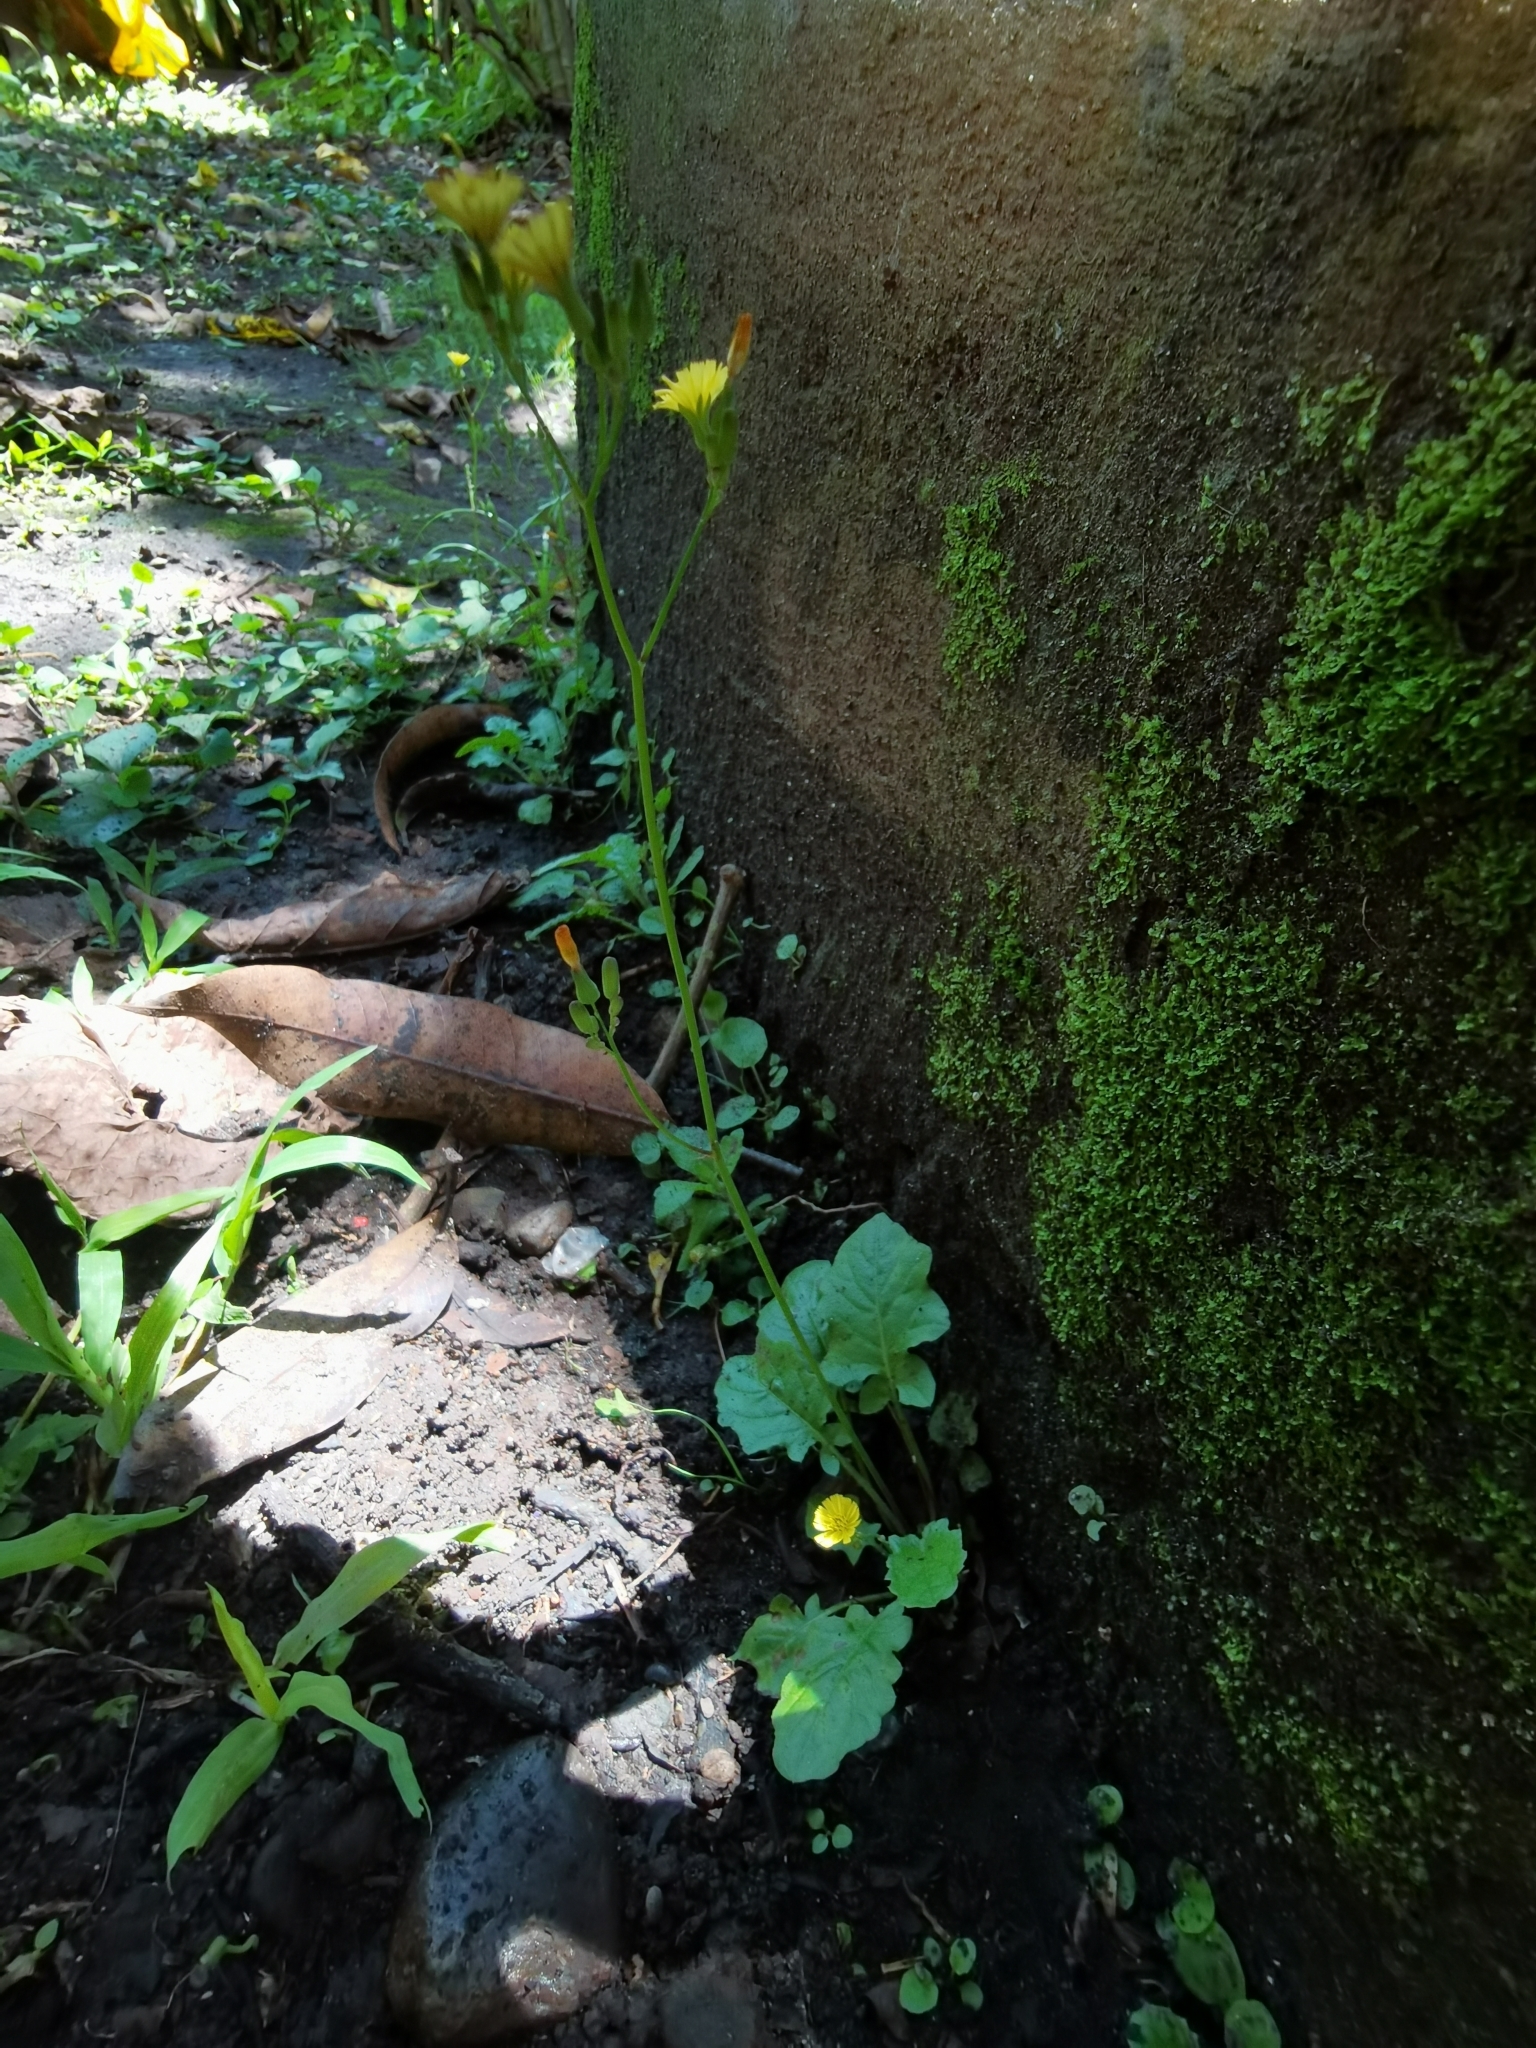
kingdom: Plantae
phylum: Tracheophyta
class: Magnoliopsida
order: Asterales
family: Asteraceae
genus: Youngia
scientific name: Youngia japonica
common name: Oriental false hawksbeard
